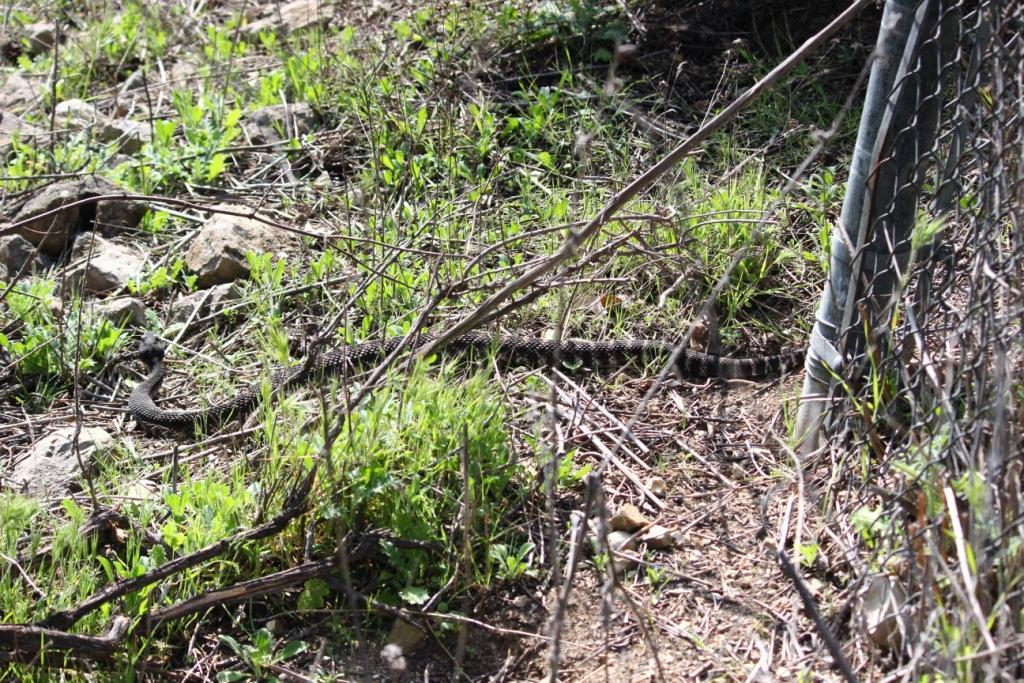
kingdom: Animalia
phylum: Chordata
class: Squamata
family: Viperidae
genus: Crotalus
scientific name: Crotalus oreganus
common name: Abyssus
